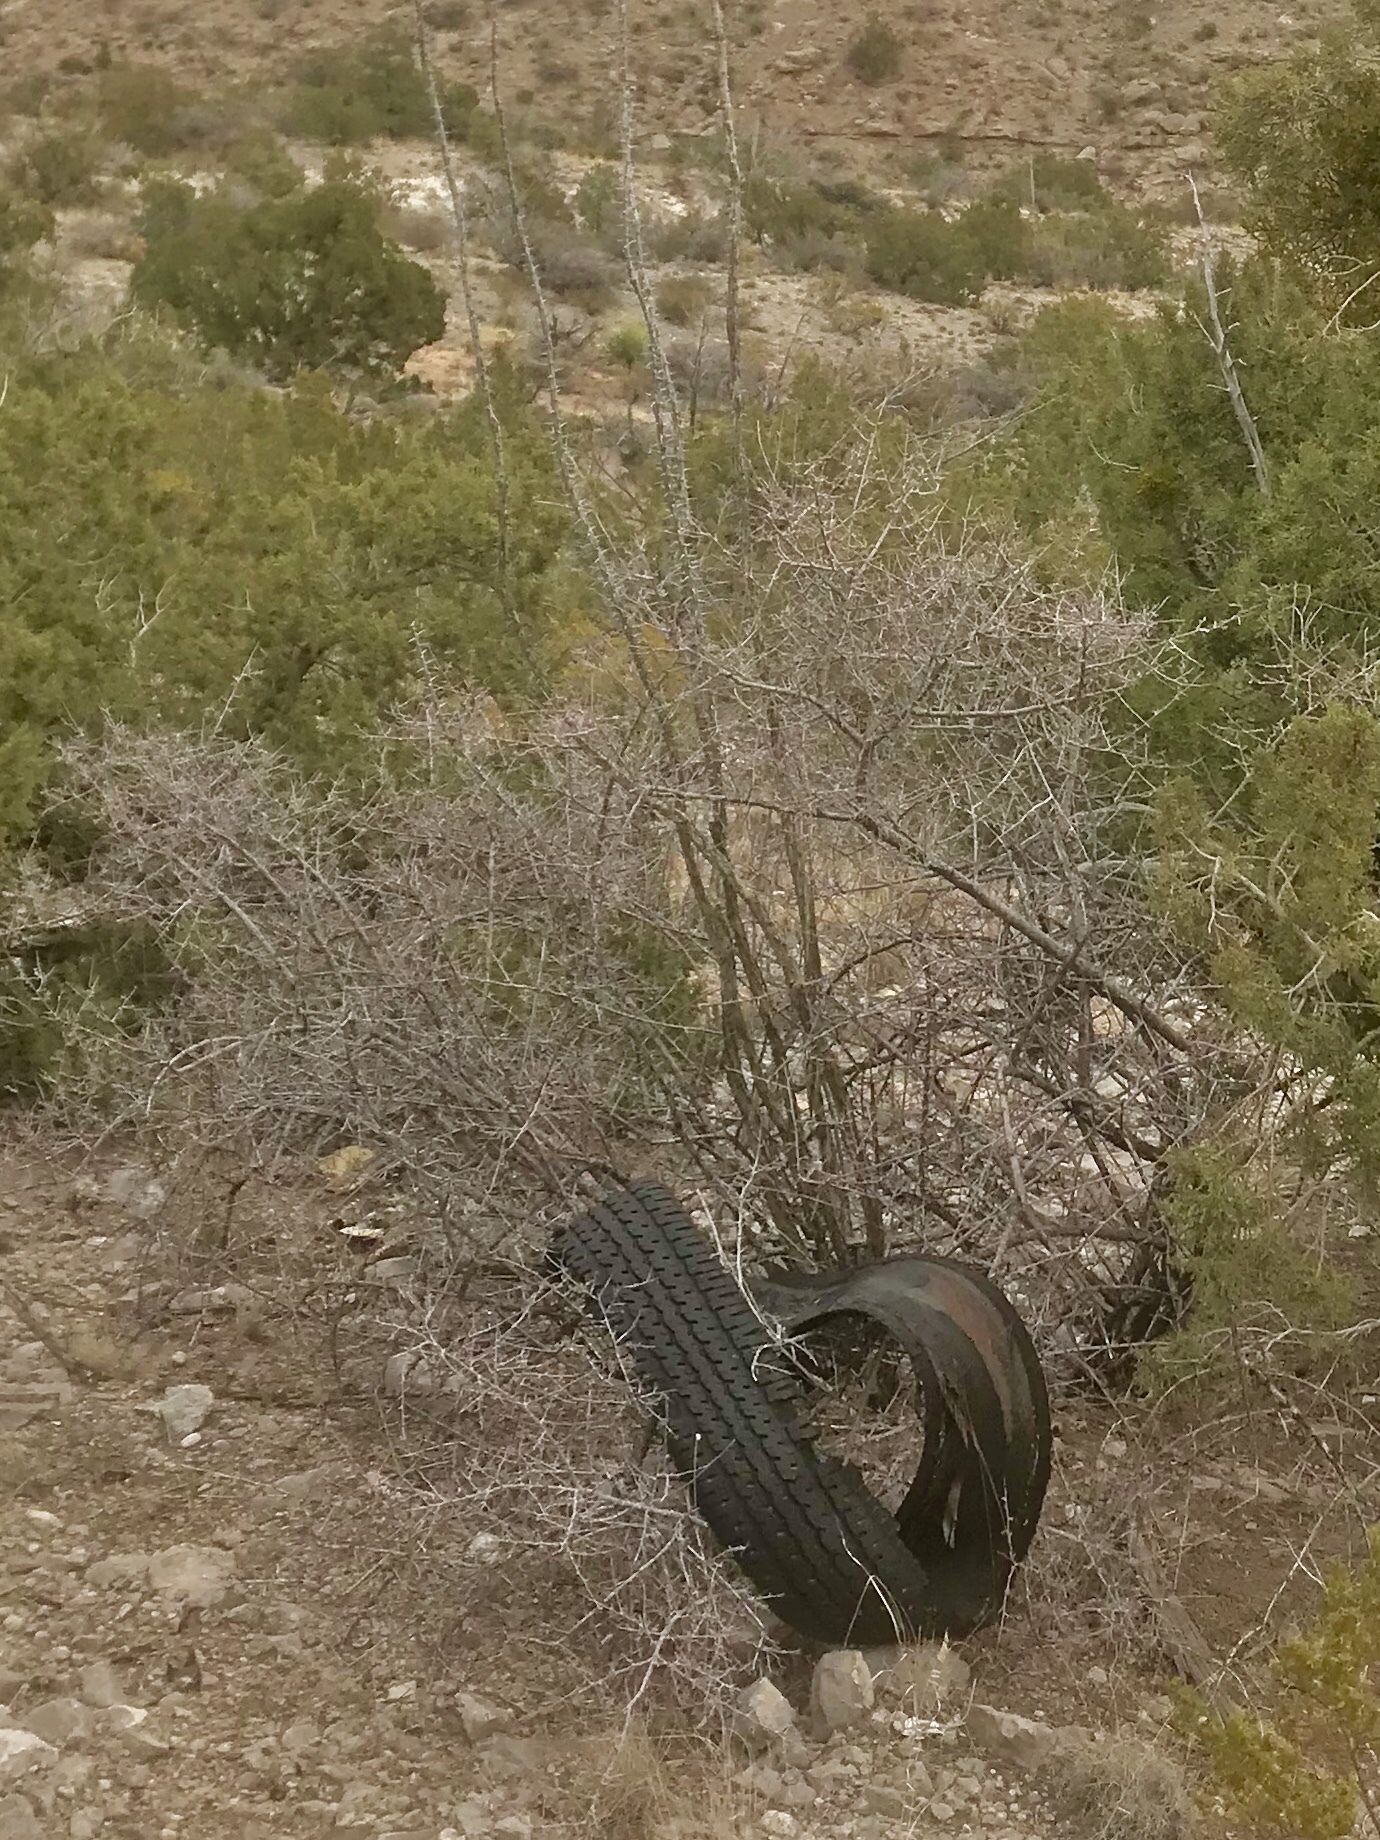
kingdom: Plantae
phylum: Tracheophyta
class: Magnoliopsida
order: Sapindales
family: Anacardiaceae
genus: Rhus
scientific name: Rhus microphylla
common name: Desert sumac
